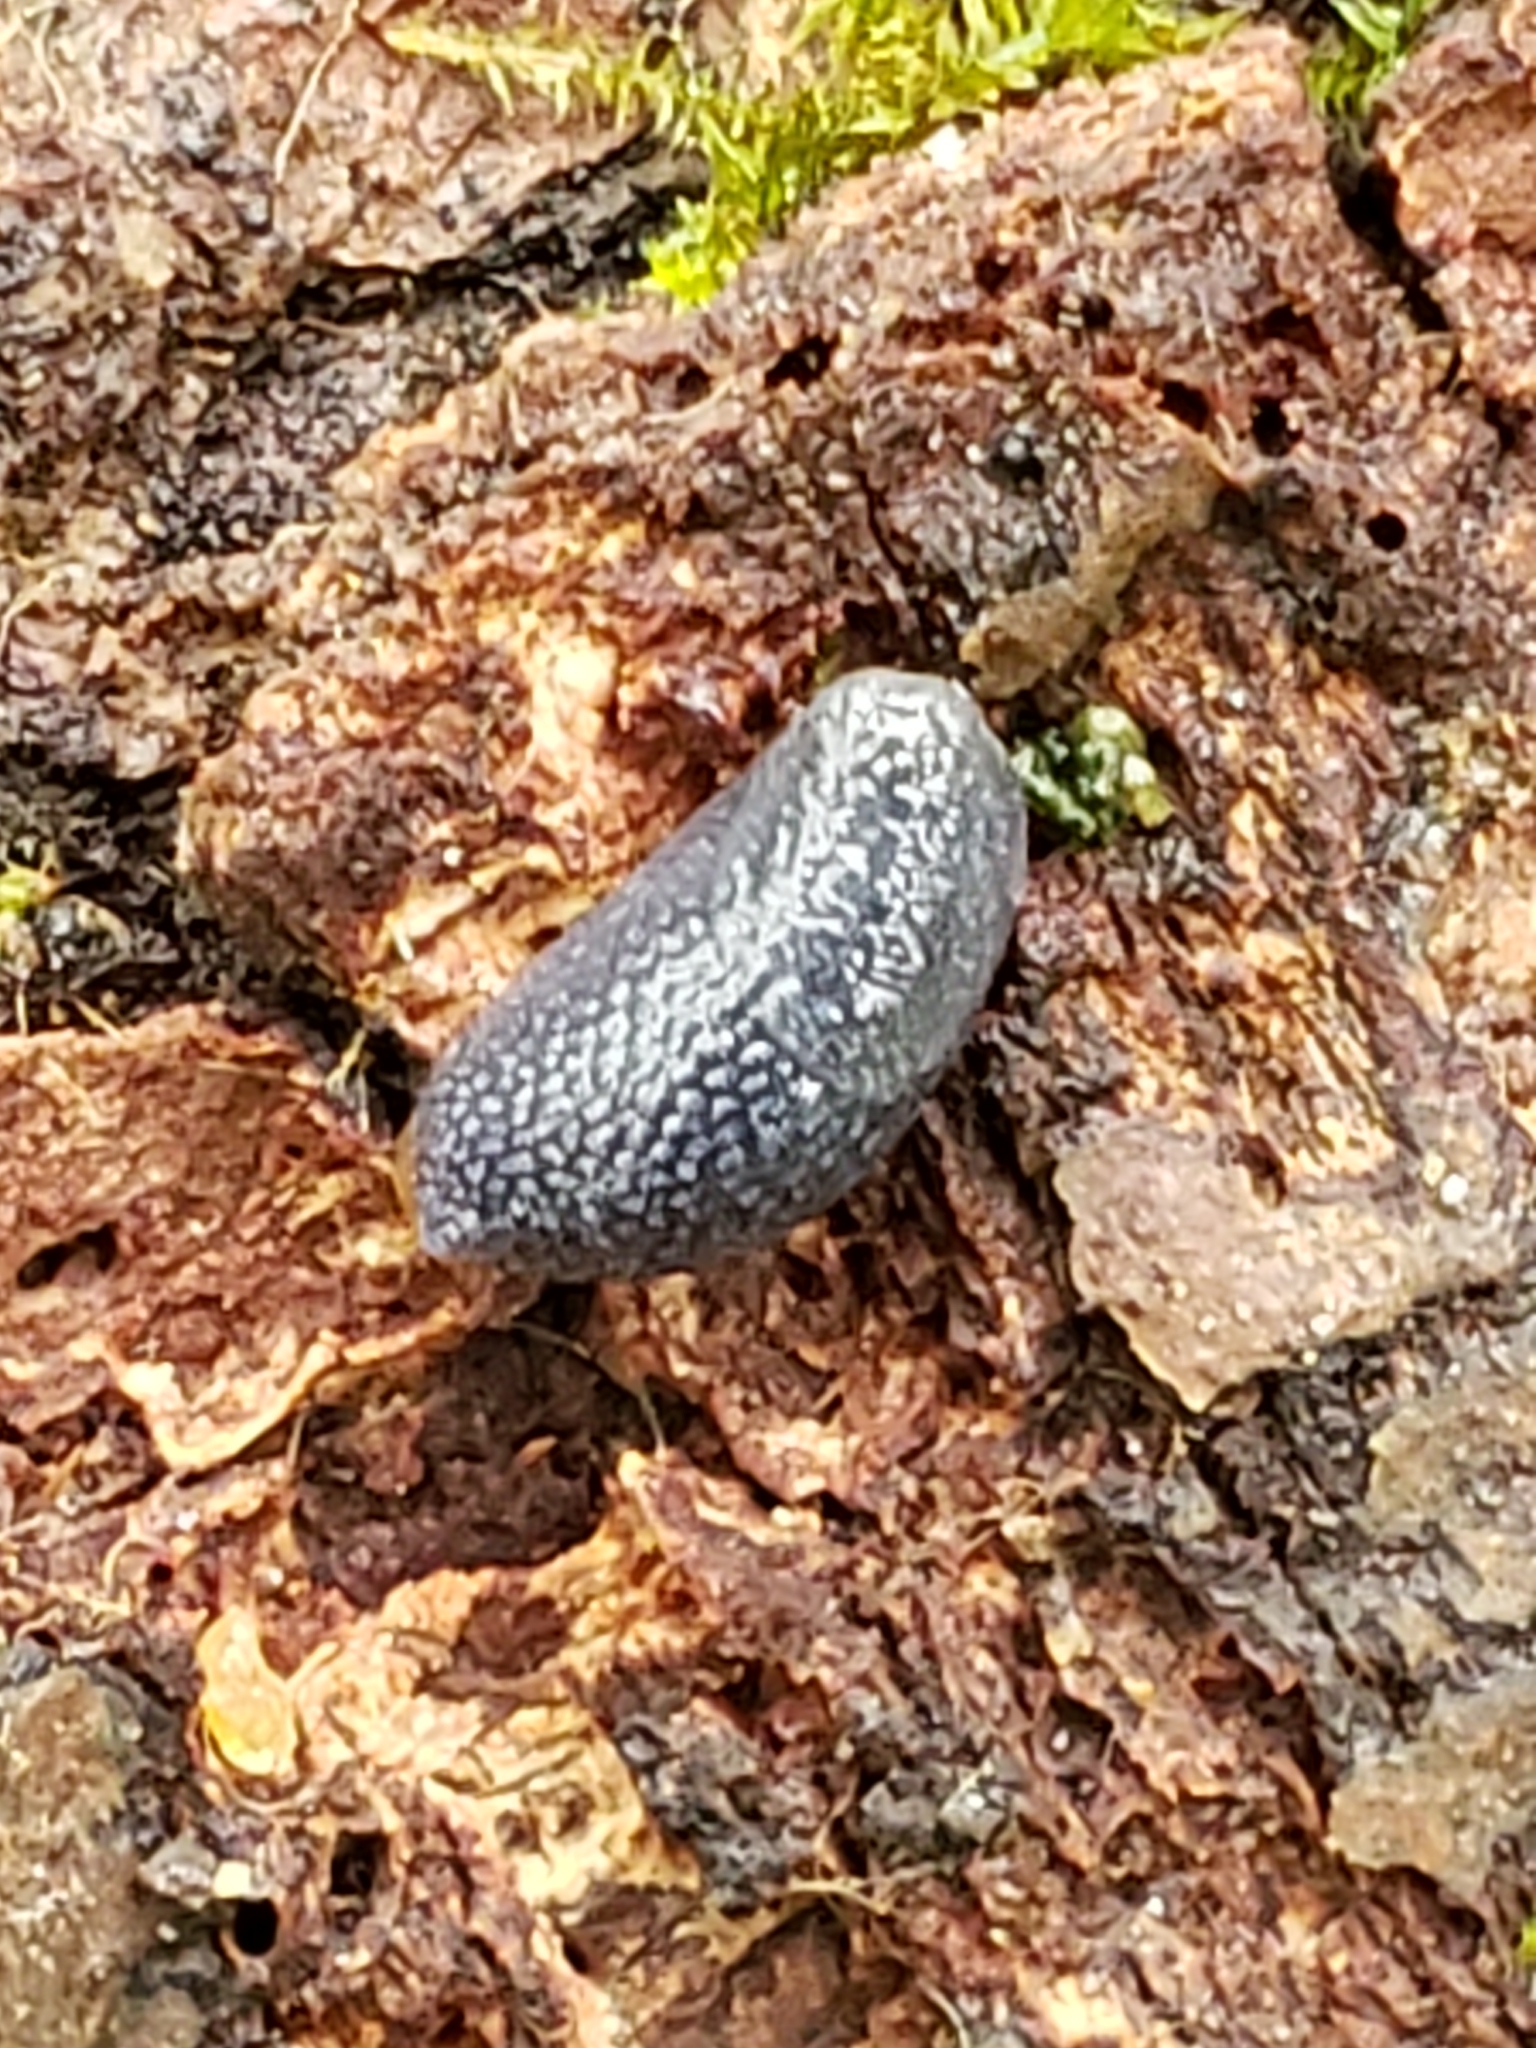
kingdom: Animalia
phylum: Mollusca
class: Gastropoda
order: Stylommatophora
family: Arionidae
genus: Arion
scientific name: Arion intermedius
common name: Hedgehog slug
